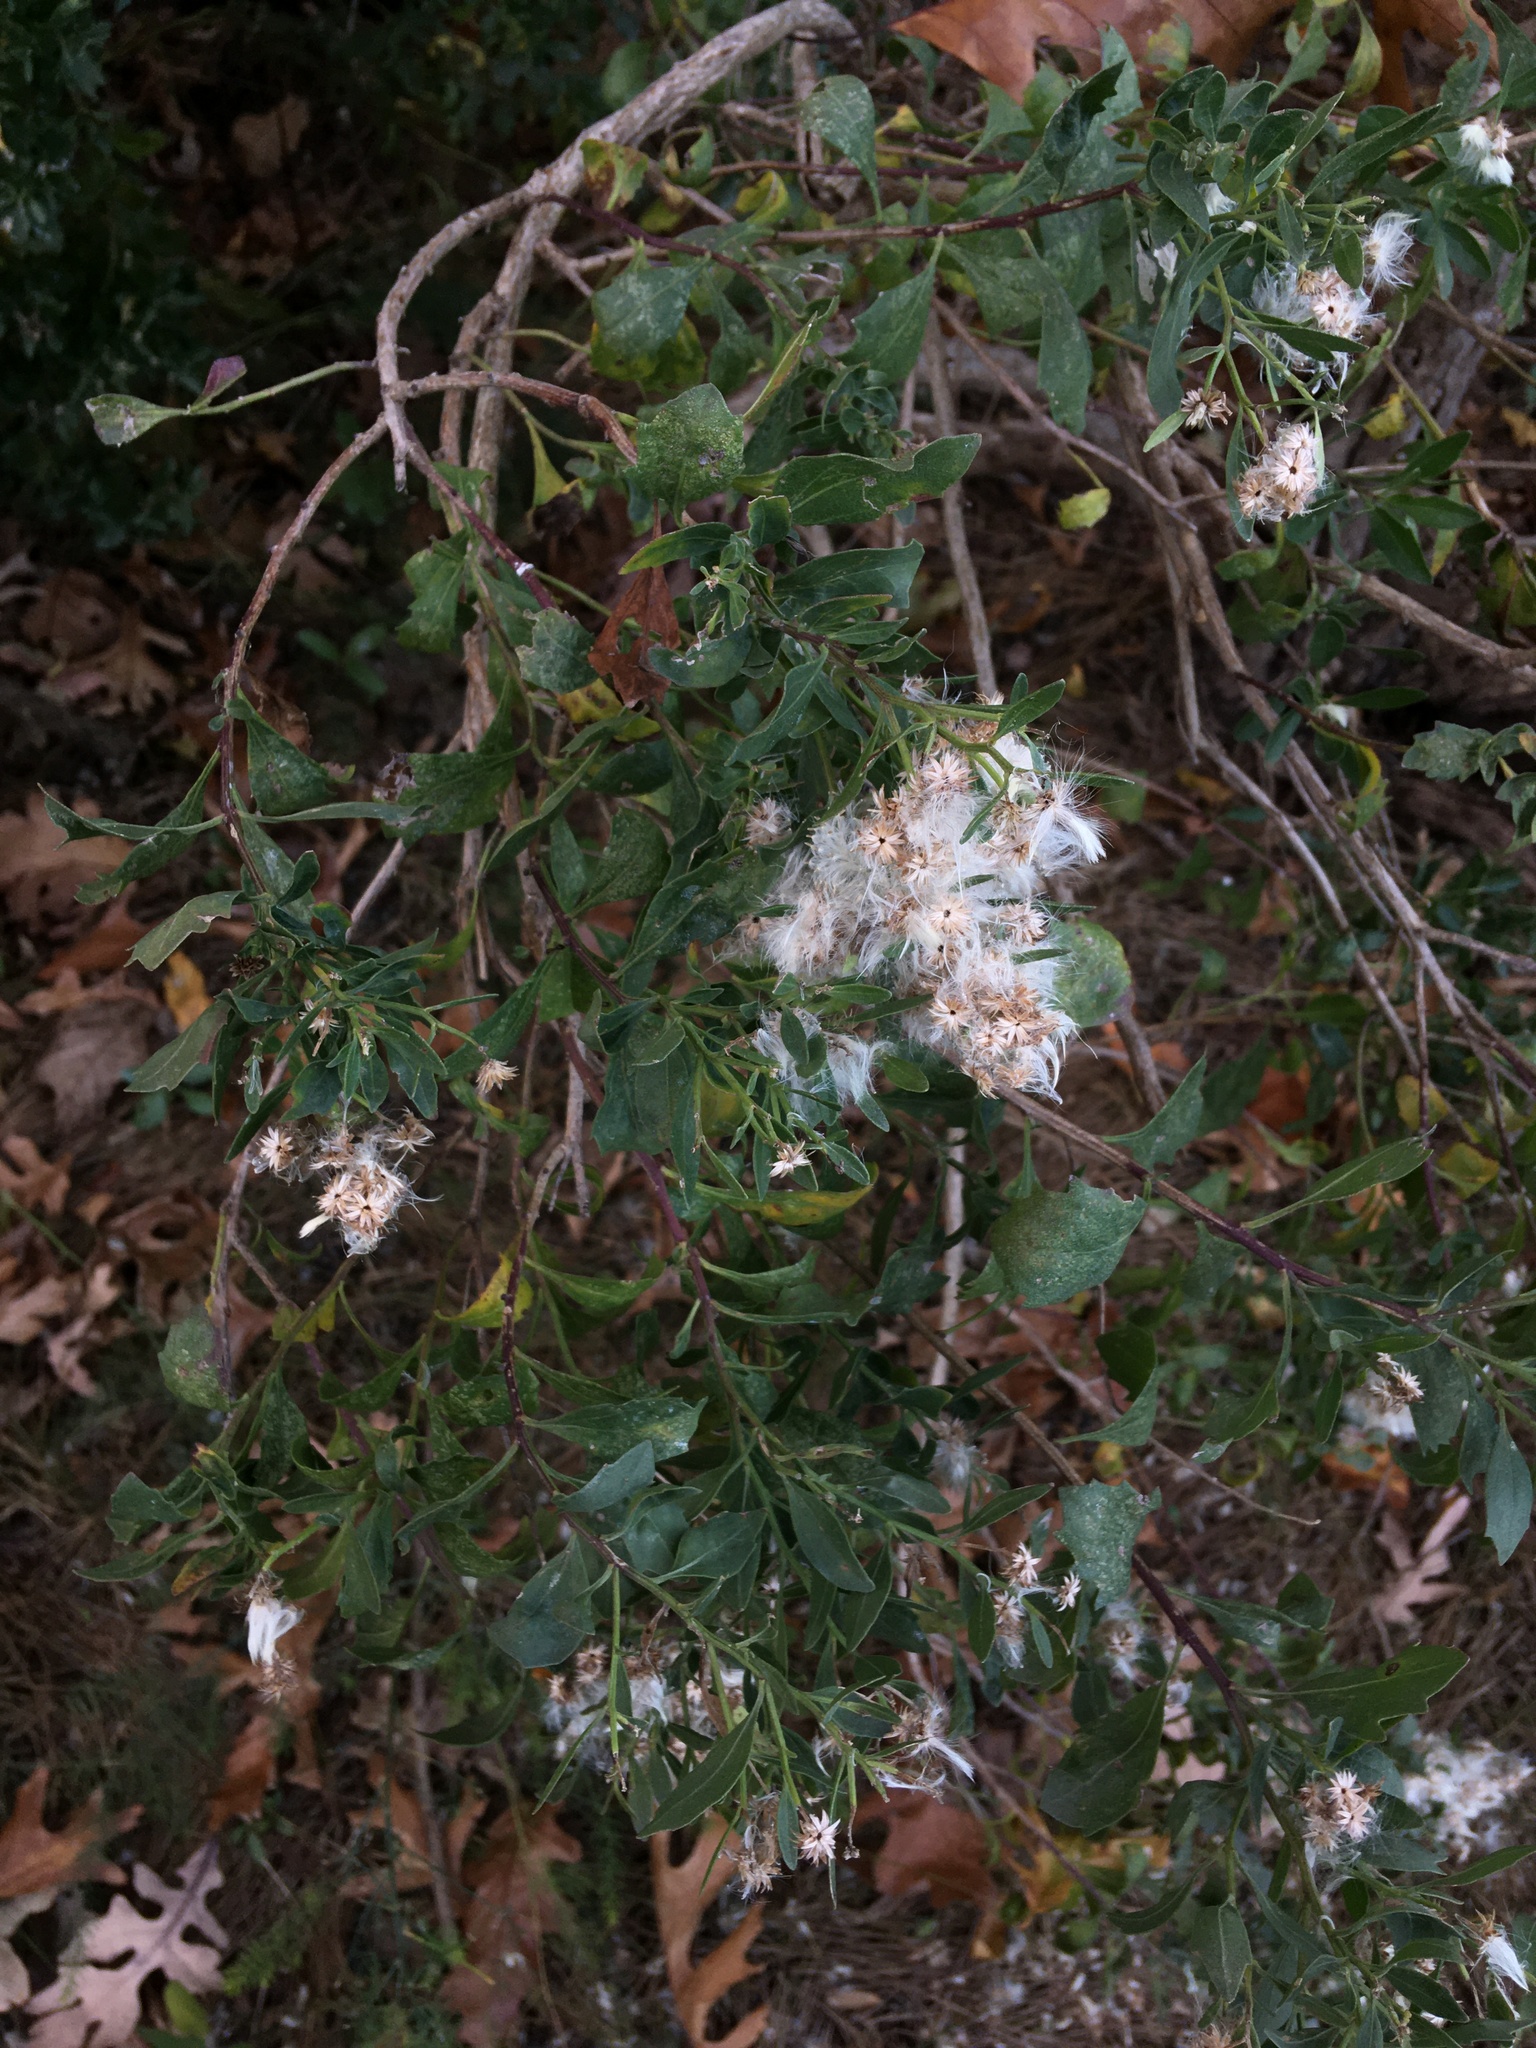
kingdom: Plantae
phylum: Tracheophyta
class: Magnoliopsida
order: Asterales
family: Asteraceae
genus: Baccharis
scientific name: Baccharis halimifolia
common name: Eastern baccharis
